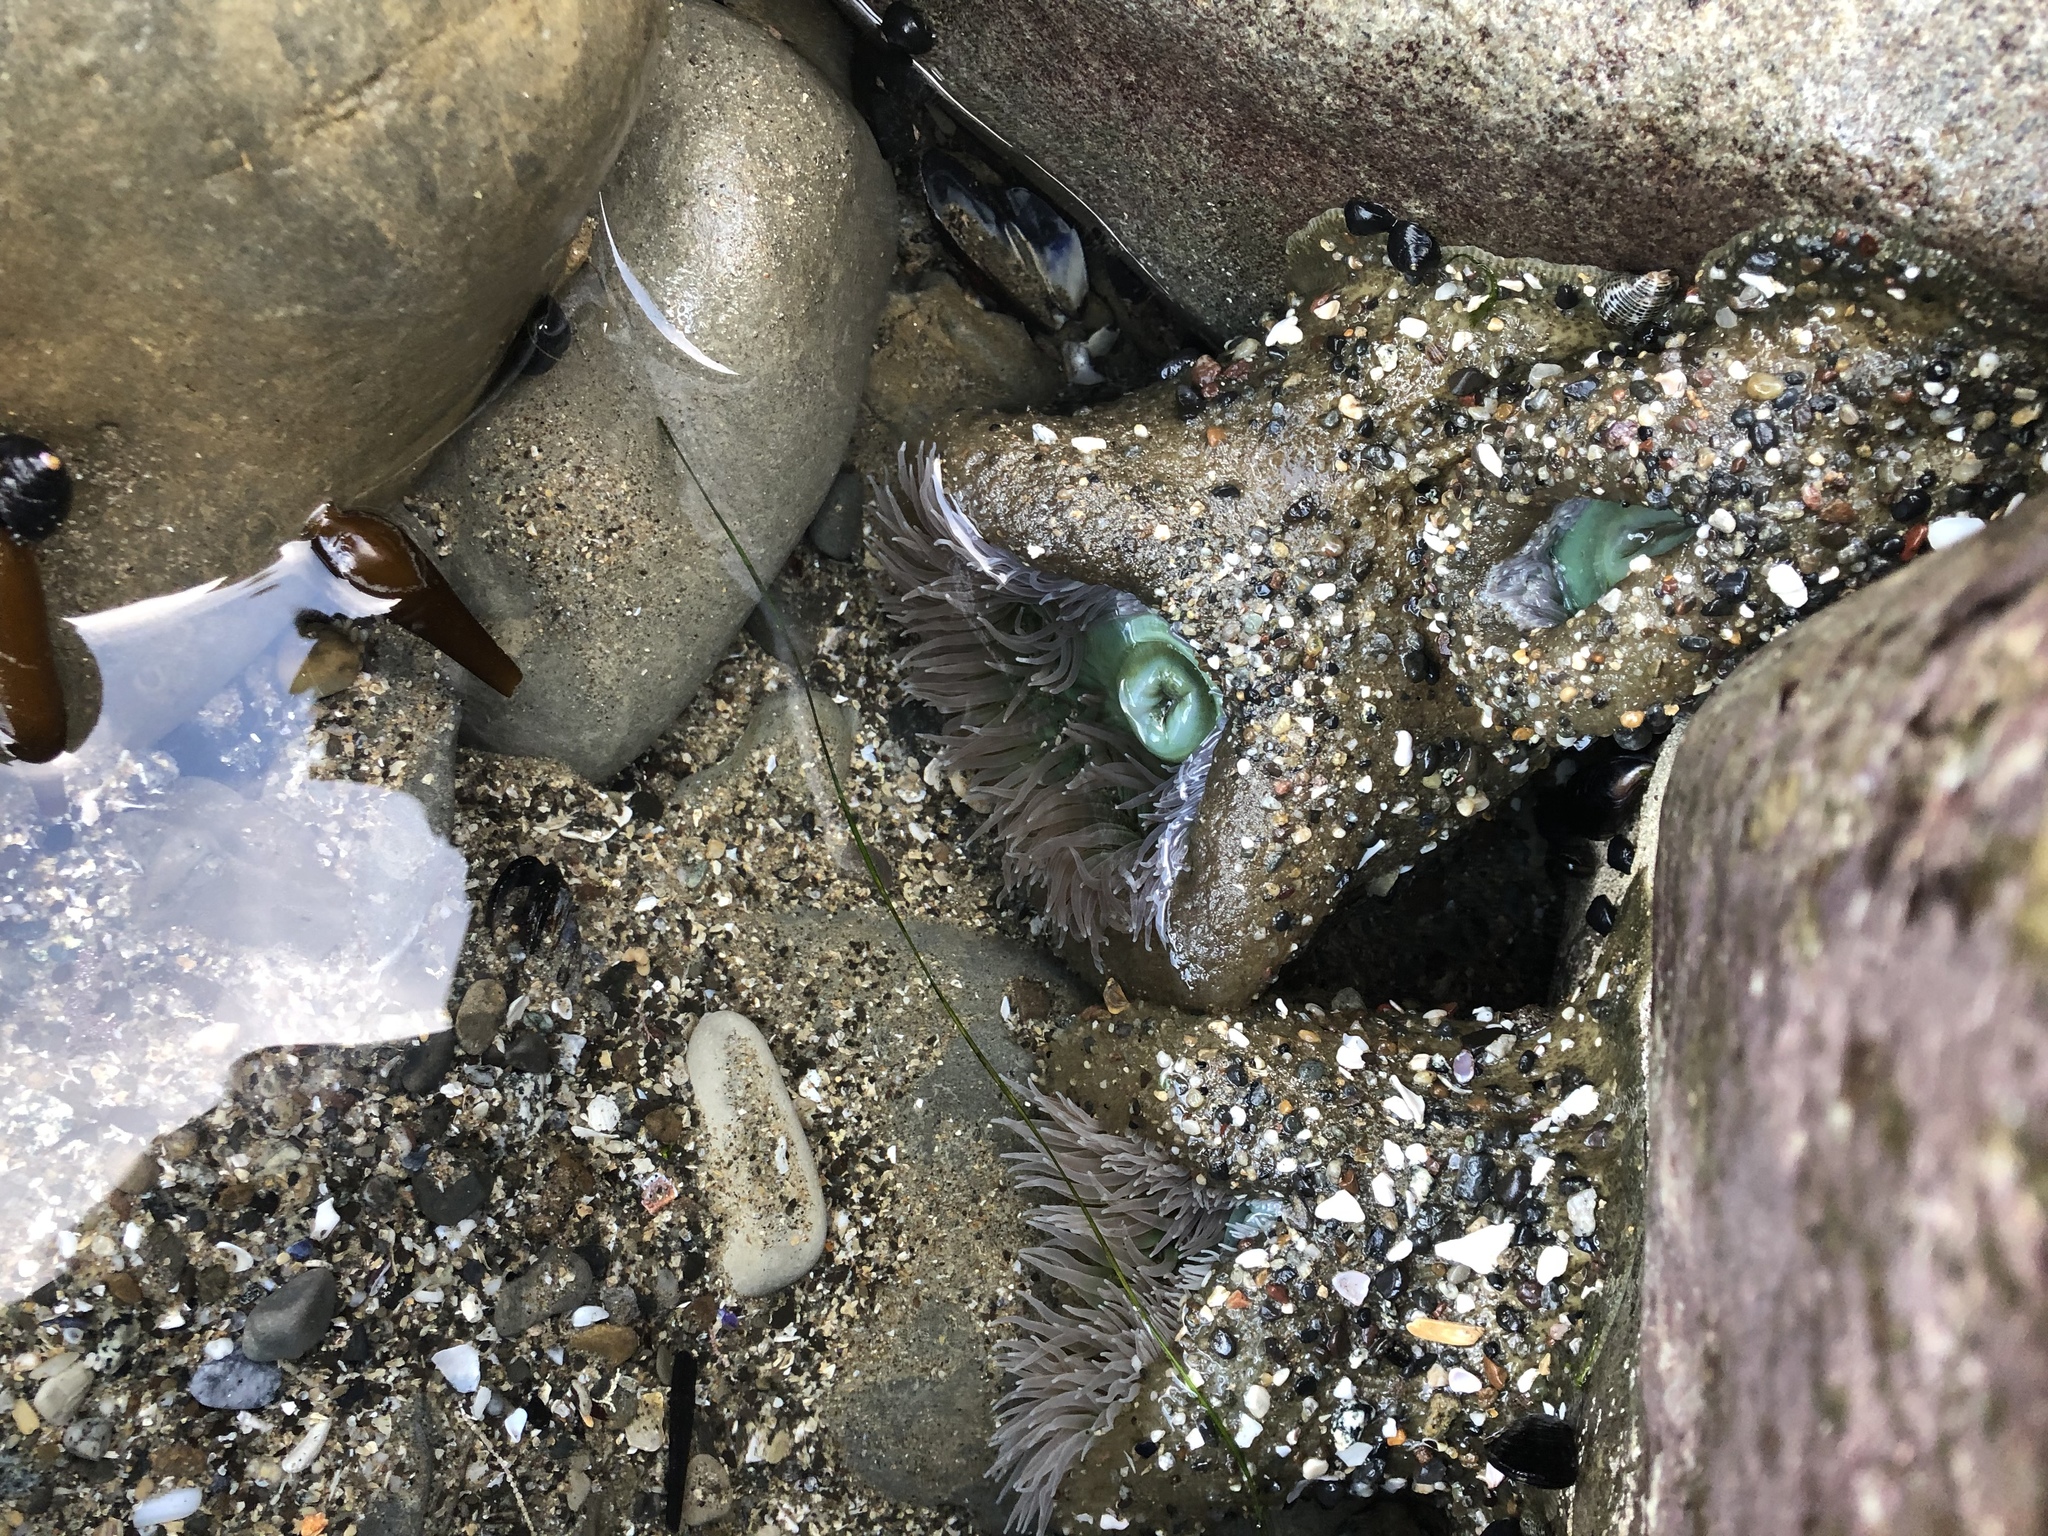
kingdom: Animalia
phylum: Cnidaria
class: Anthozoa
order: Actiniaria
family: Actiniidae
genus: Anthopleura
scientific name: Anthopleura xanthogrammica
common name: Giant green anemone
